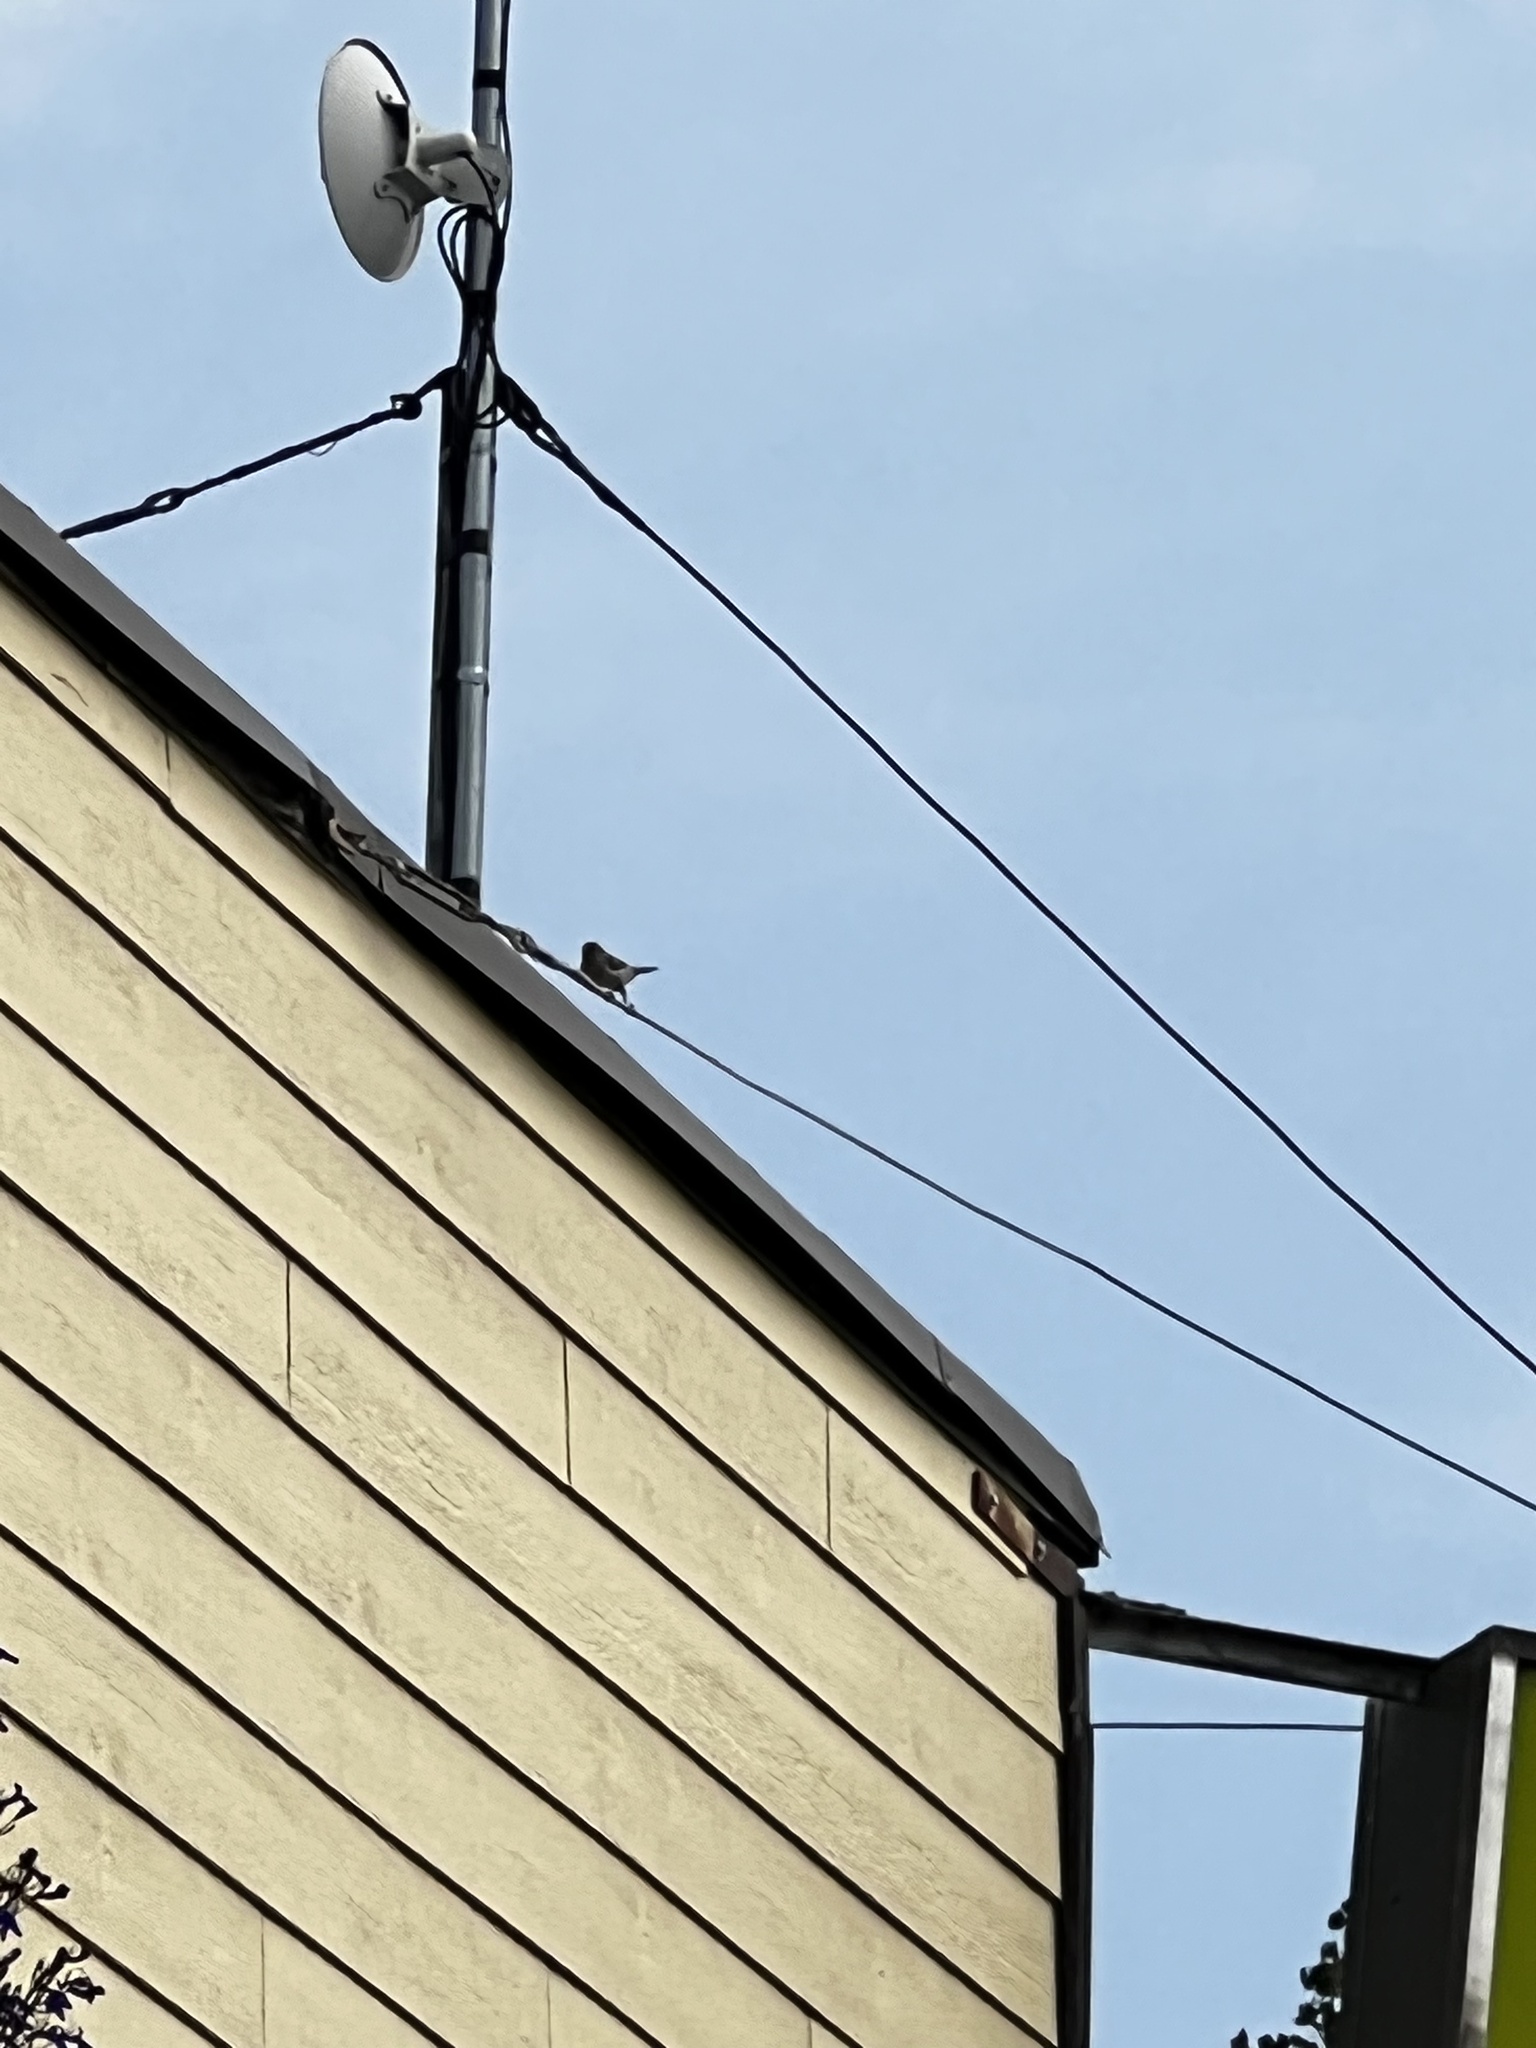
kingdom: Animalia
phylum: Chordata
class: Aves
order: Passeriformes
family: Passeridae
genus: Passer
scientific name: Passer domesticus
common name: House sparrow
